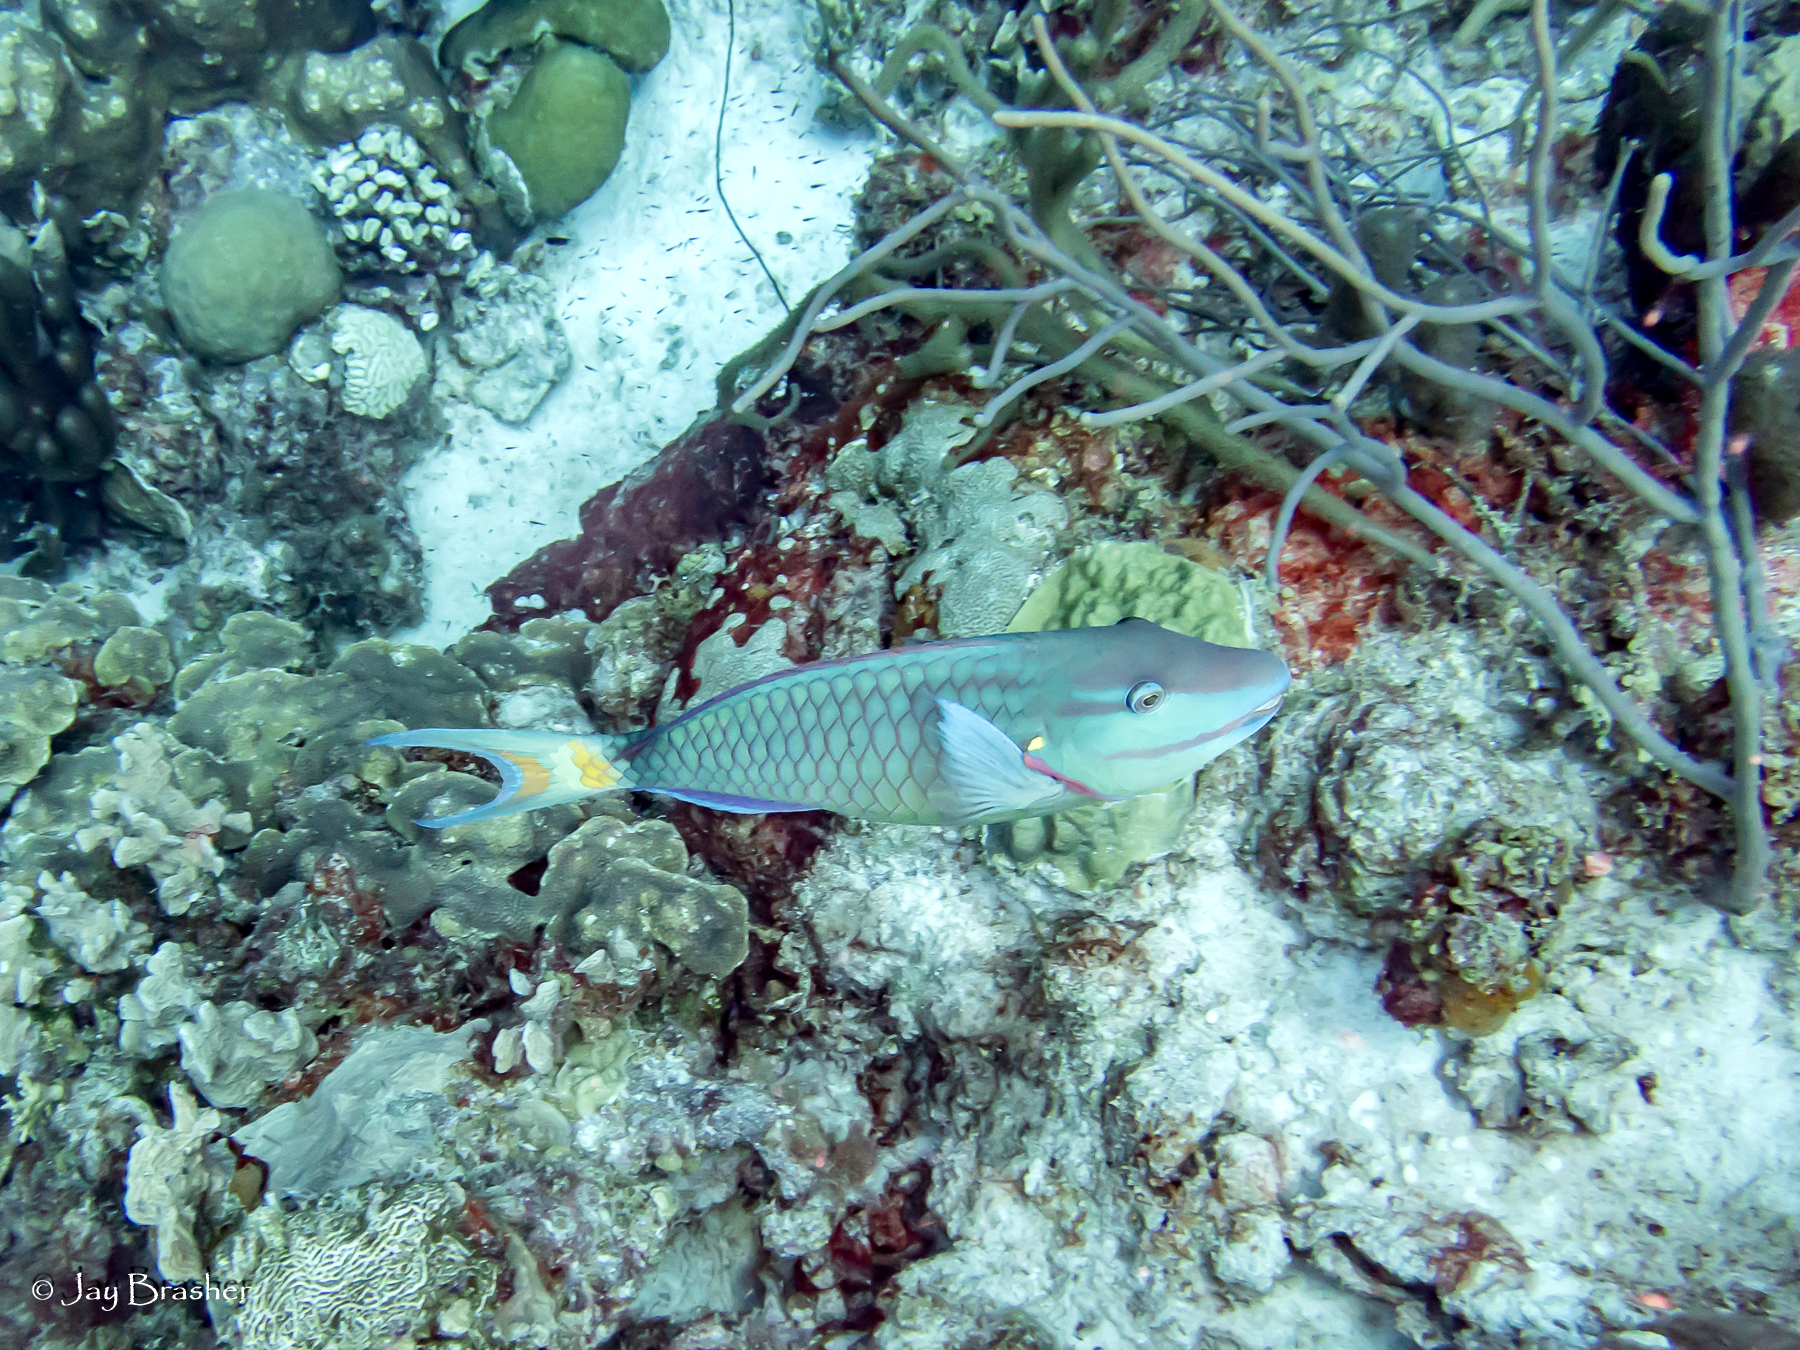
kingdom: Animalia
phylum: Chordata
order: Perciformes
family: Scaridae
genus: Sparisoma
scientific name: Sparisoma viride
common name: Stoplight parrotfish
